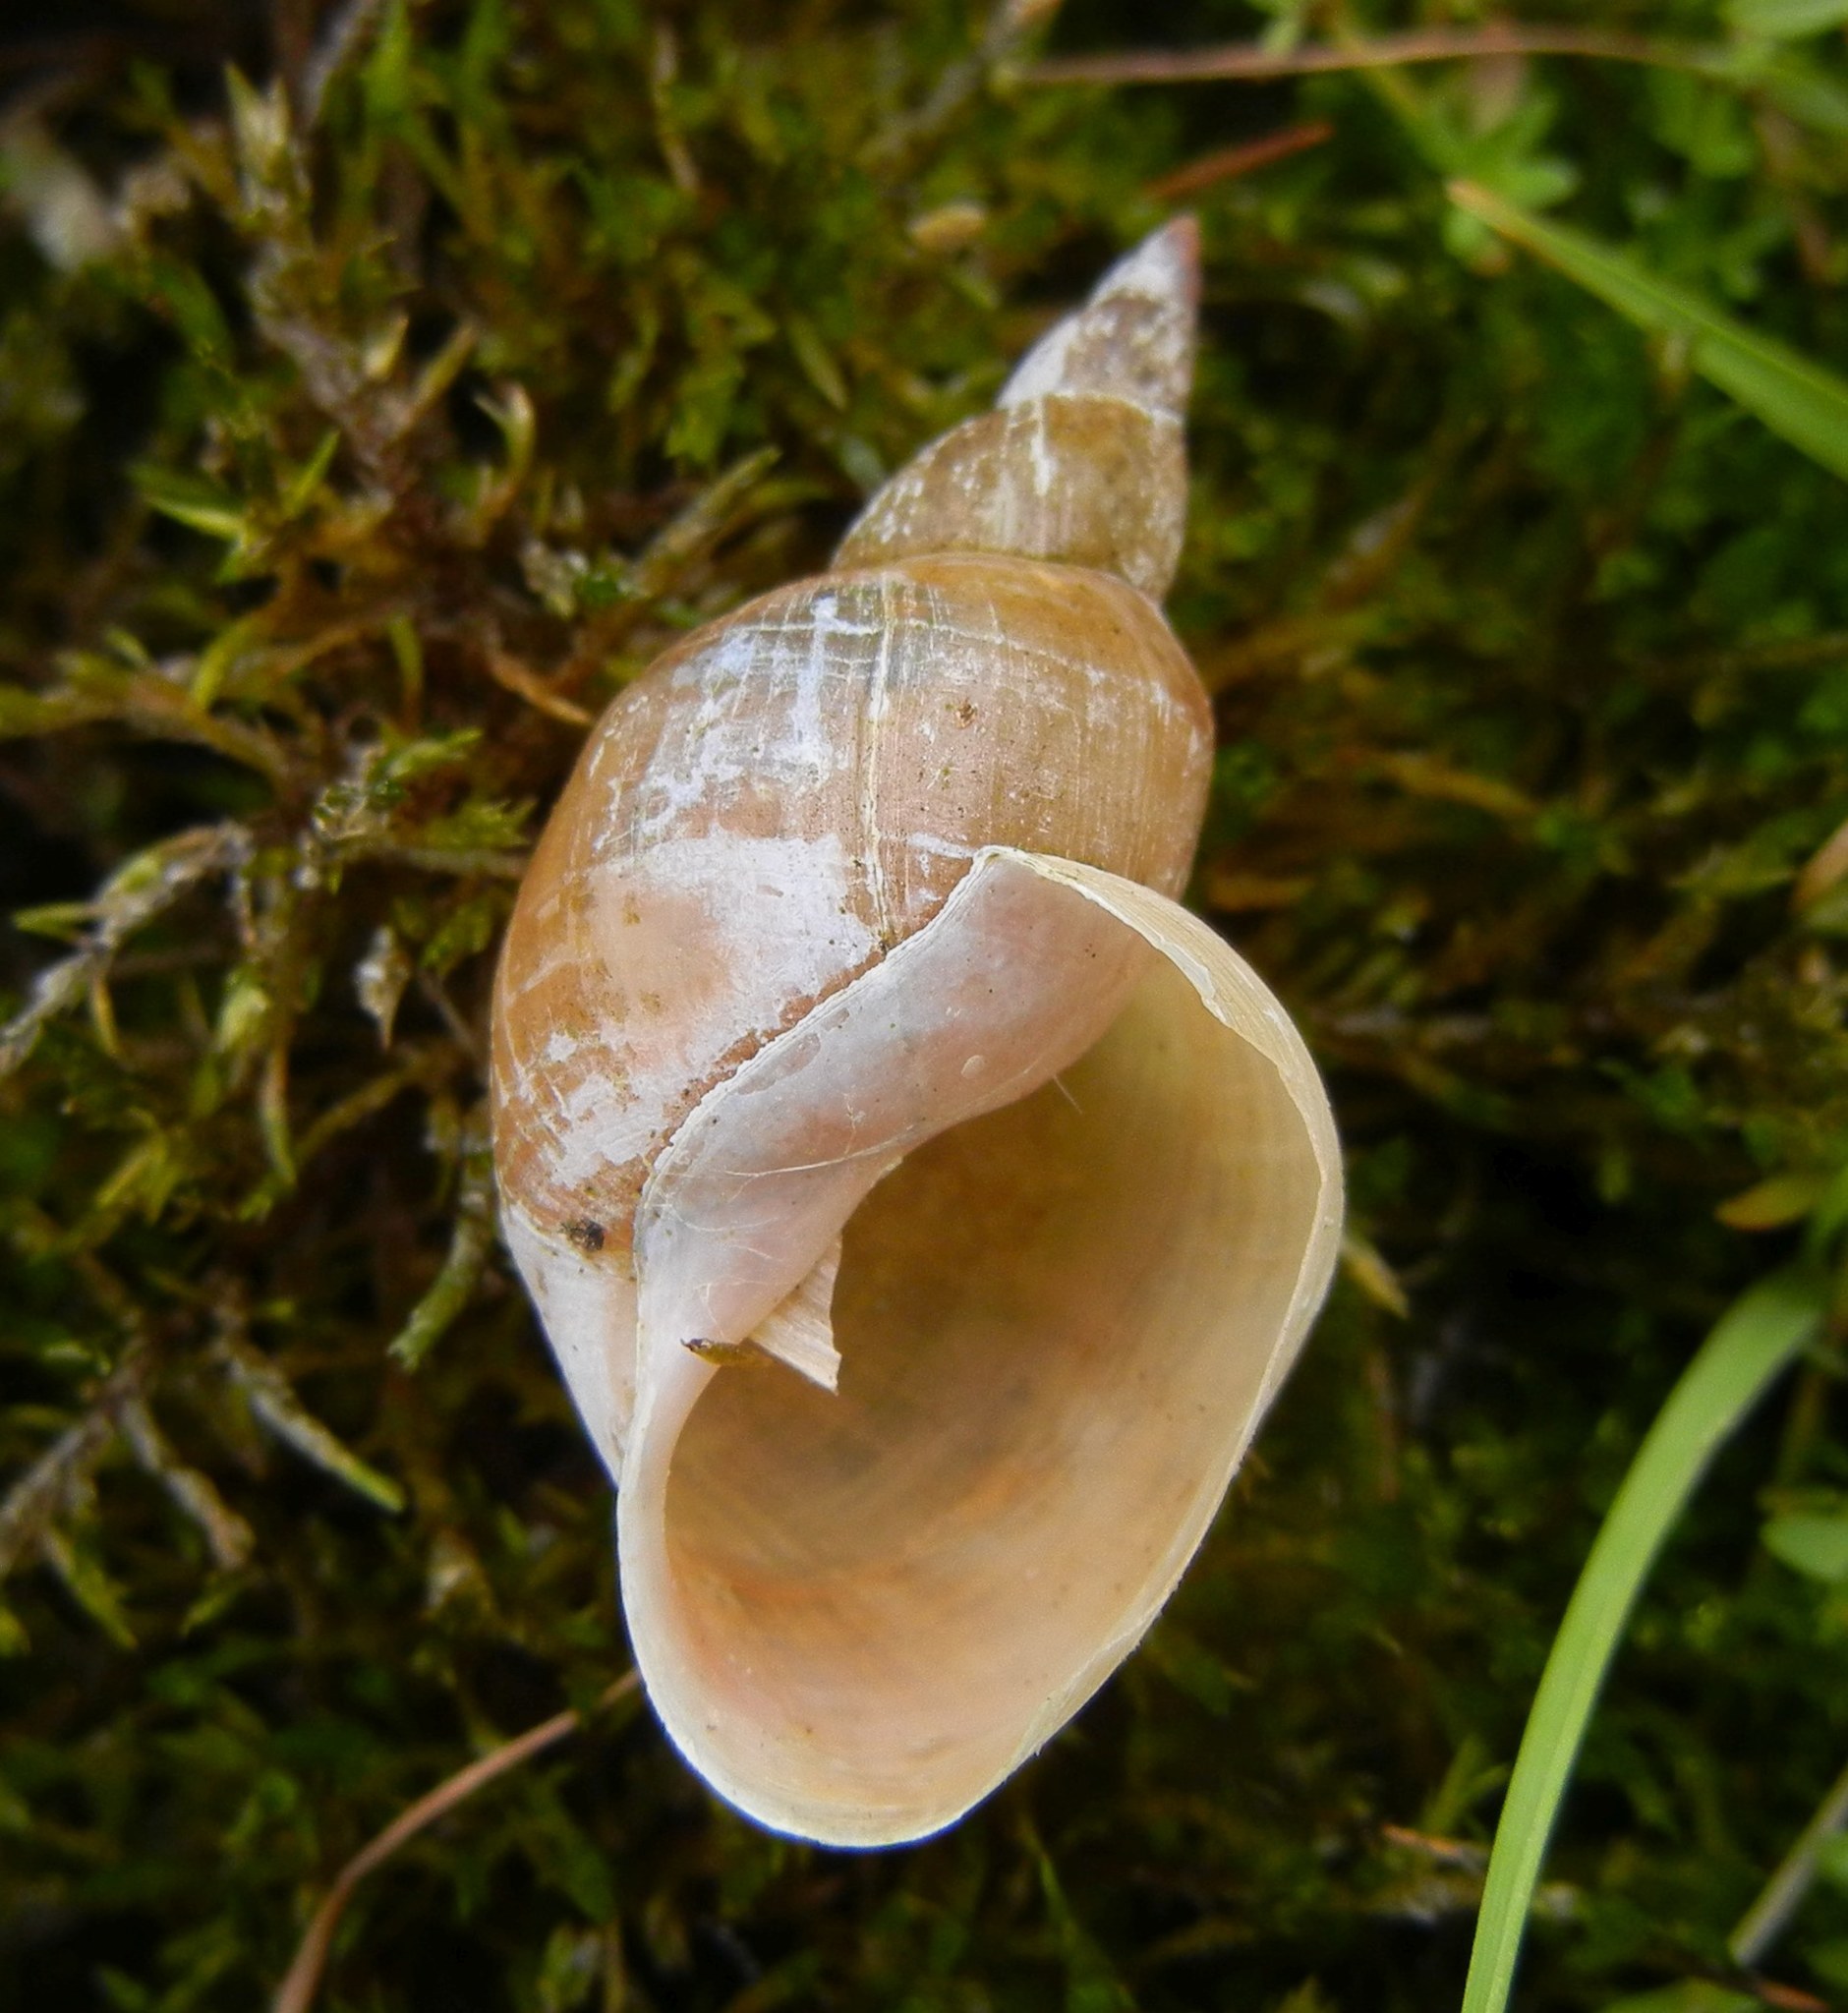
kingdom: Animalia
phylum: Mollusca
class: Gastropoda
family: Lymnaeidae
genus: Lymnaea
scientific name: Lymnaea stagnalis
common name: Great pond snail
